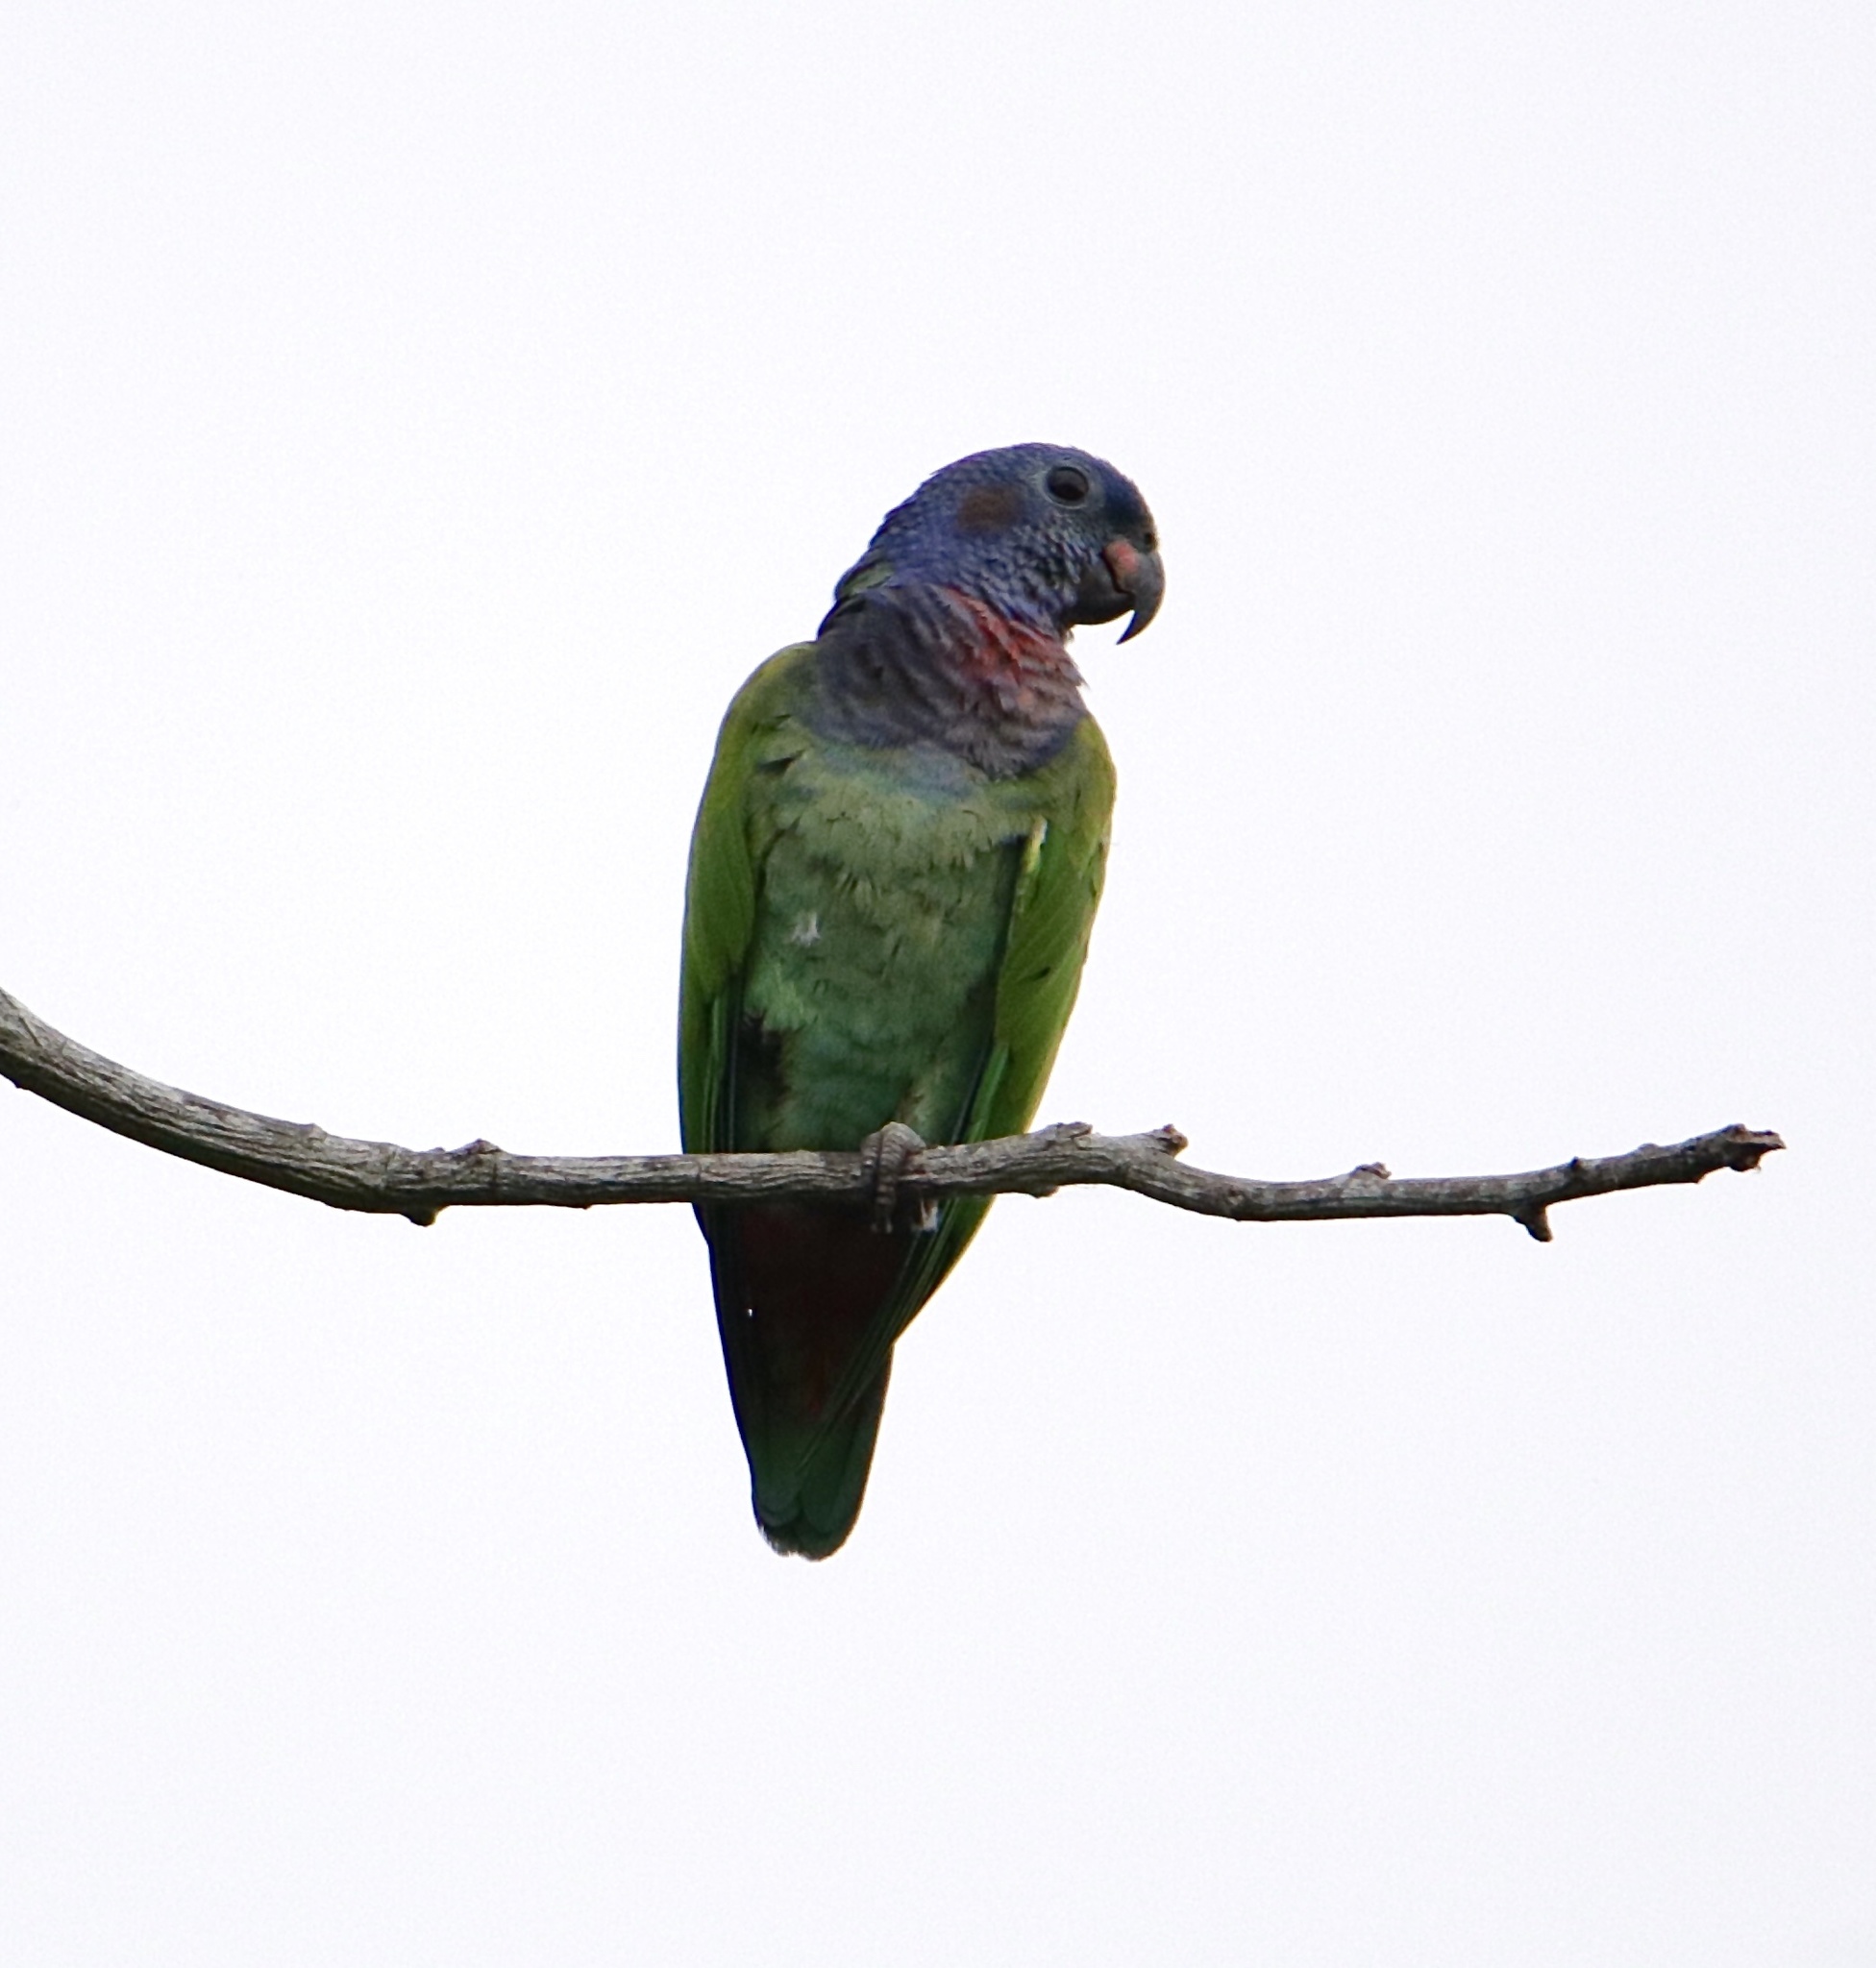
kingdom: Animalia
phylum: Chordata
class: Aves
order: Psittaciformes
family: Psittacidae
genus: Pionus
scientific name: Pionus menstruus
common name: Blue-headed parrot
